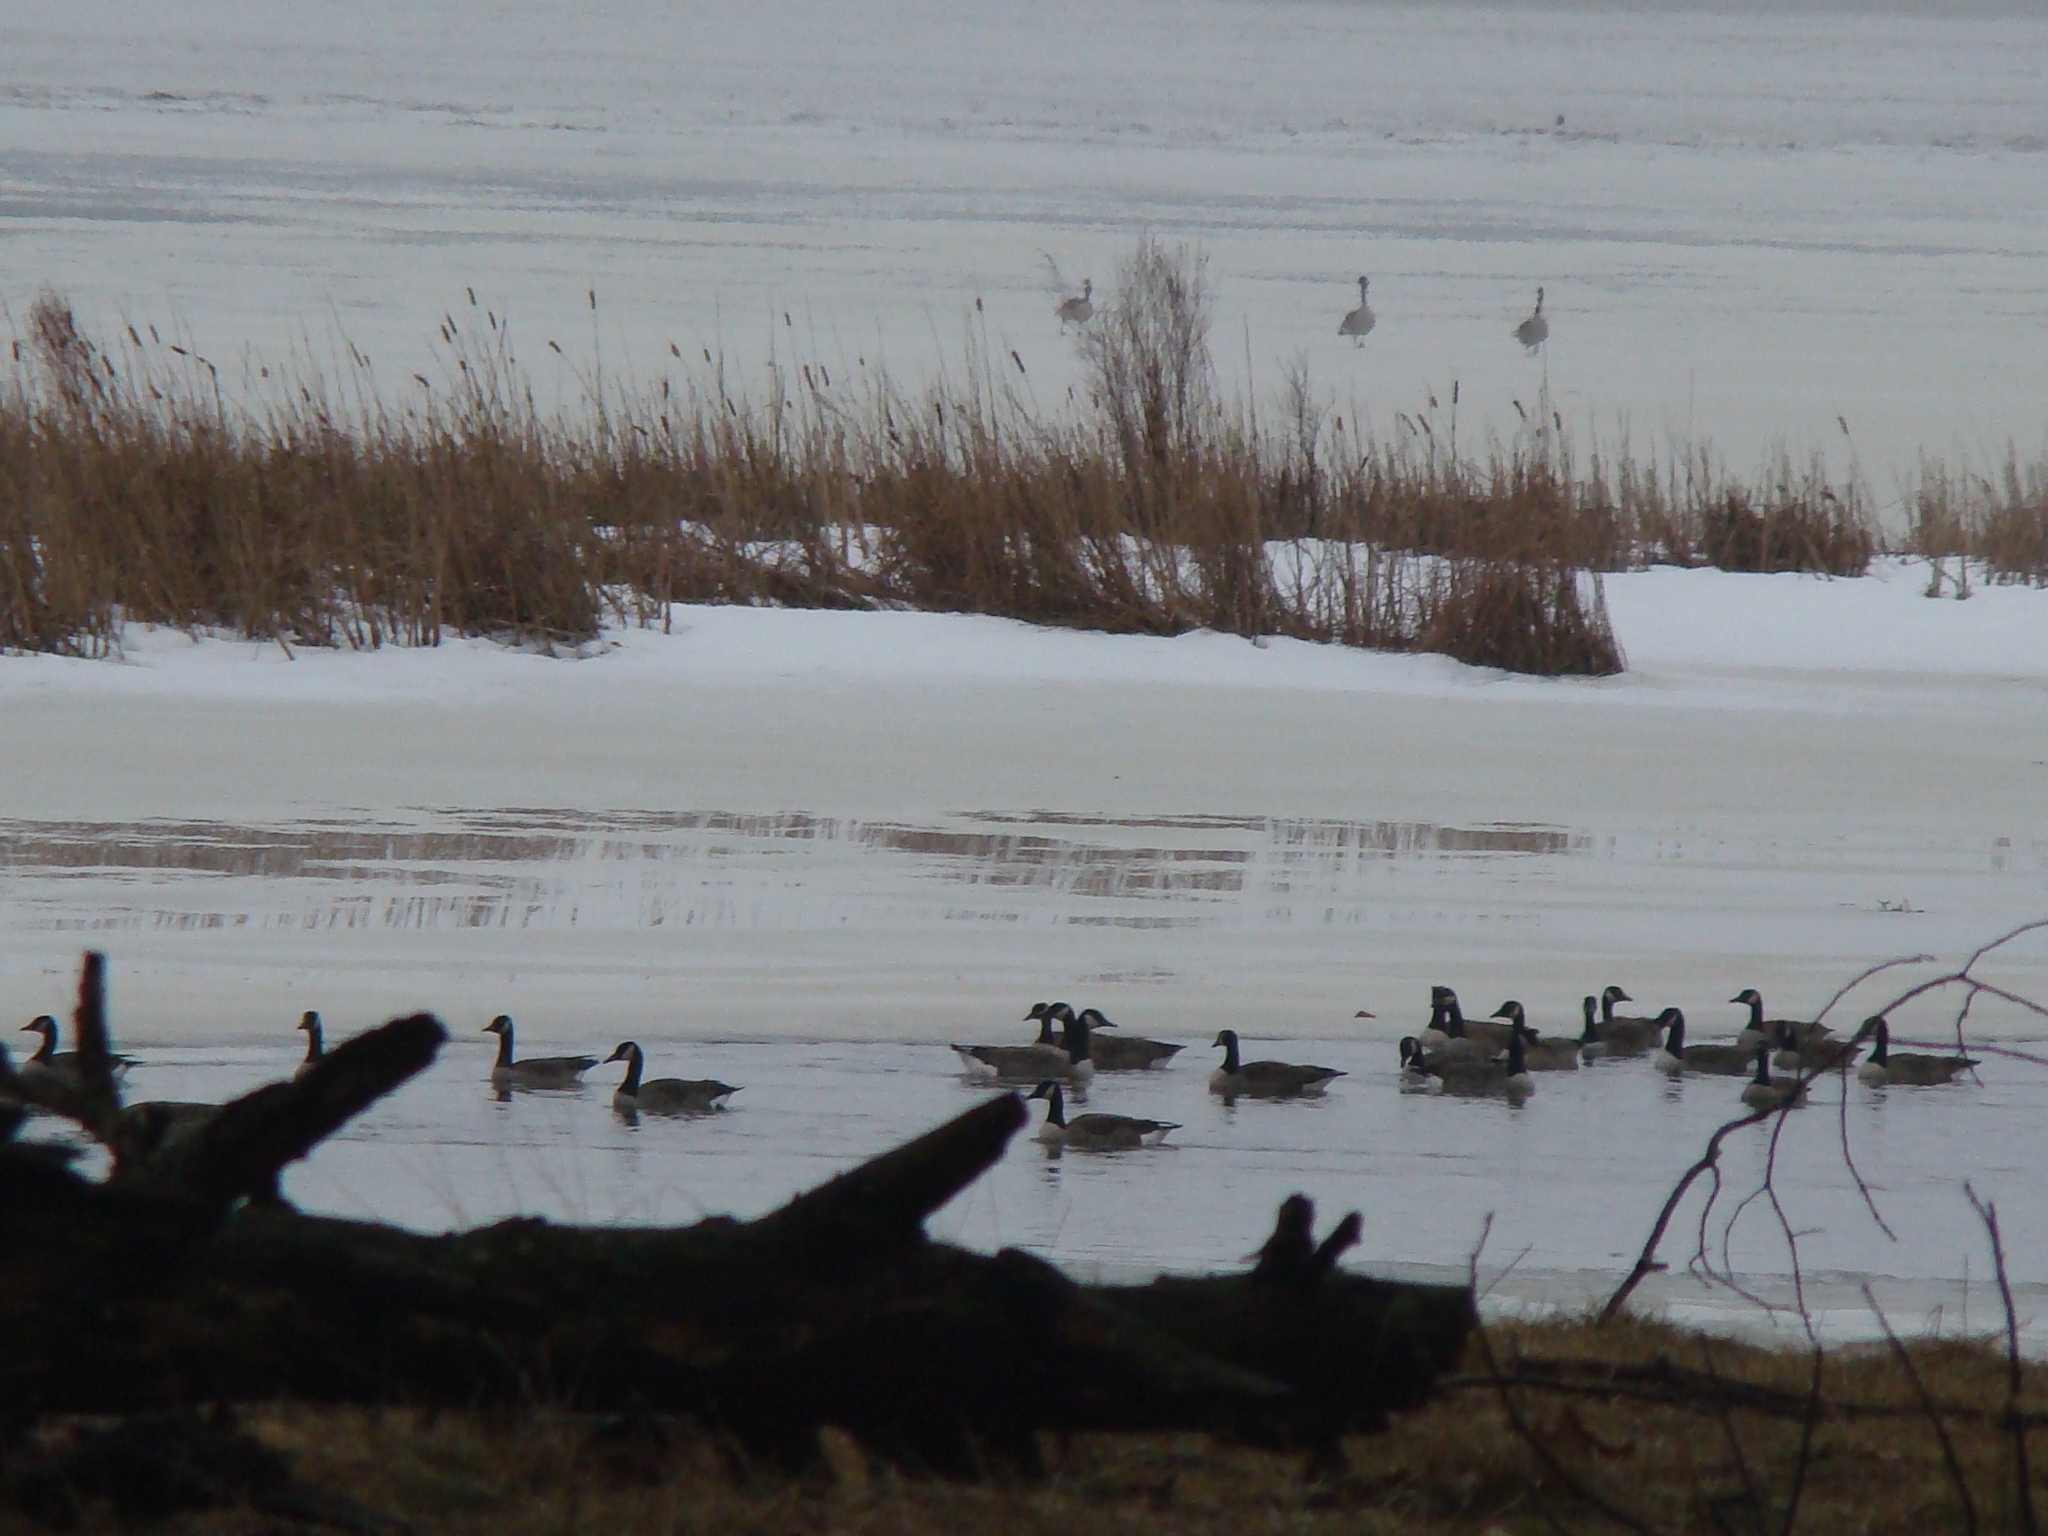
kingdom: Animalia
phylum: Chordata
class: Aves
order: Anseriformes
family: Anatidae
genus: Branta
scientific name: Branta canadensis
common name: Canada goose
